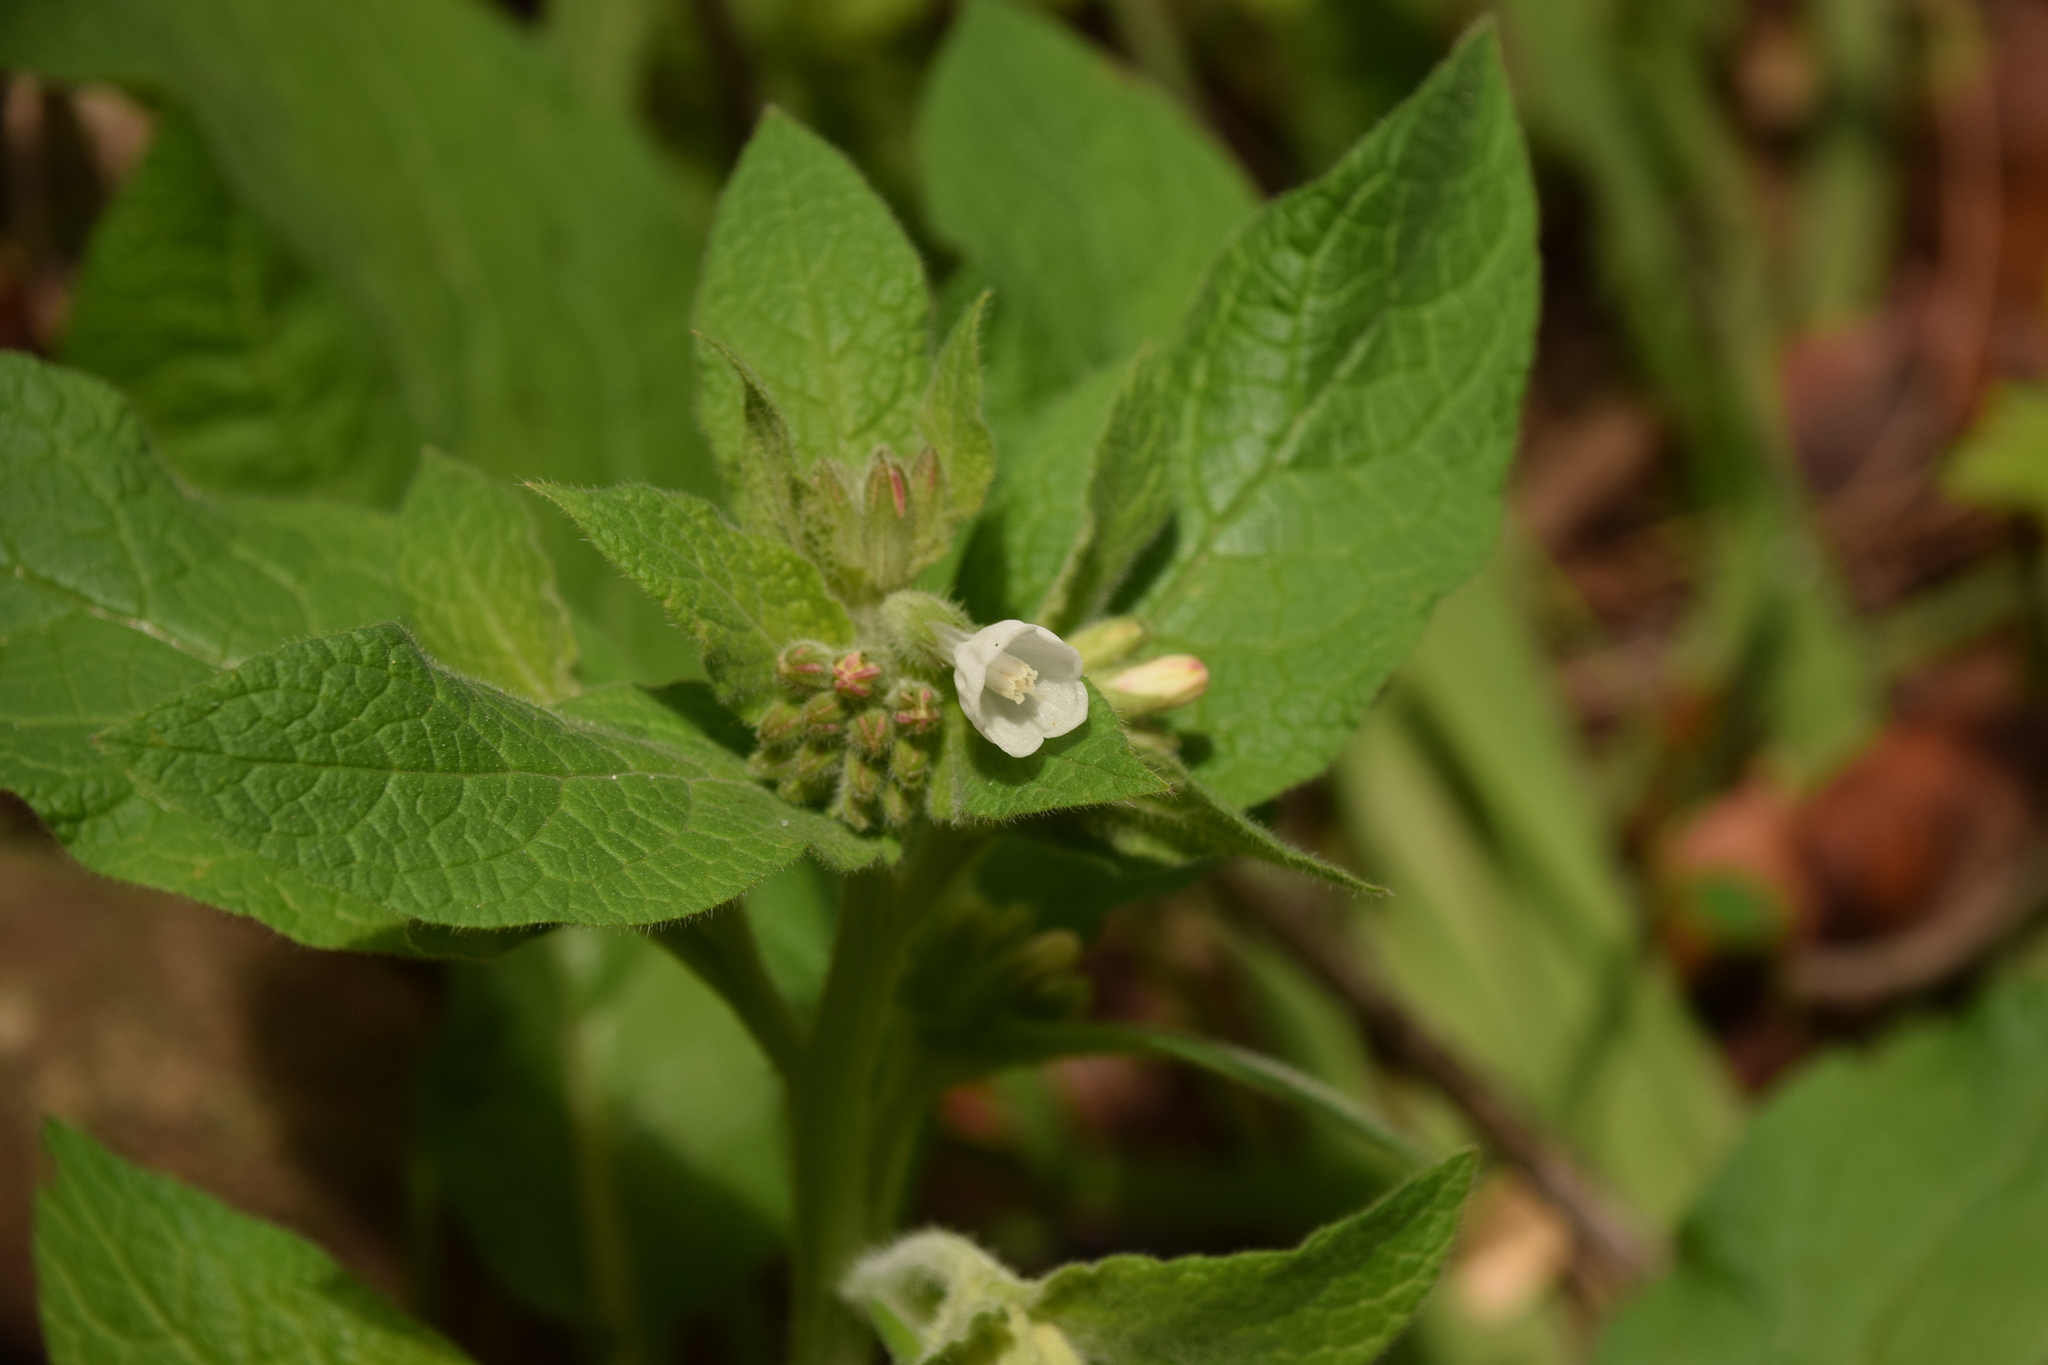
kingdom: Plantae
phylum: Tracheophyta
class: Magnoliopsida
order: Boraginales
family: Boraginaceae
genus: Symphytum
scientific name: Symphytum brachycalyx
